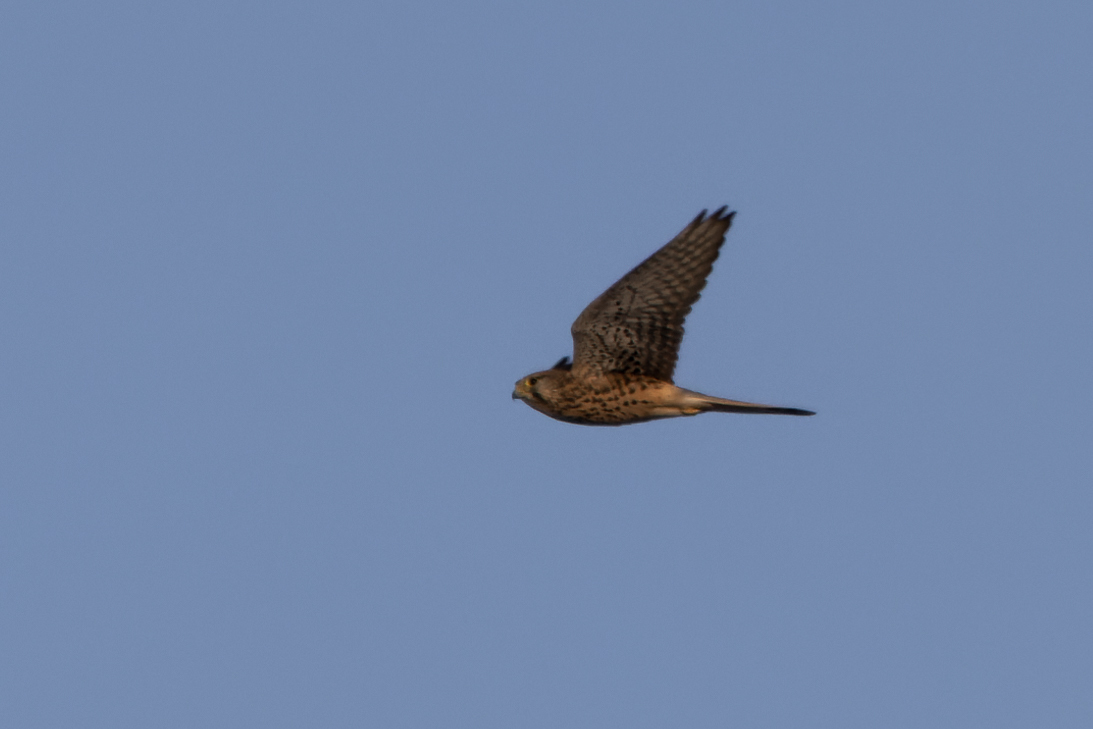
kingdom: Animalia
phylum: Chordata
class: Aves
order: Falconiformes
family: Falconidae
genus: Falco
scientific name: Falco tinnunculus
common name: Common kestrel
